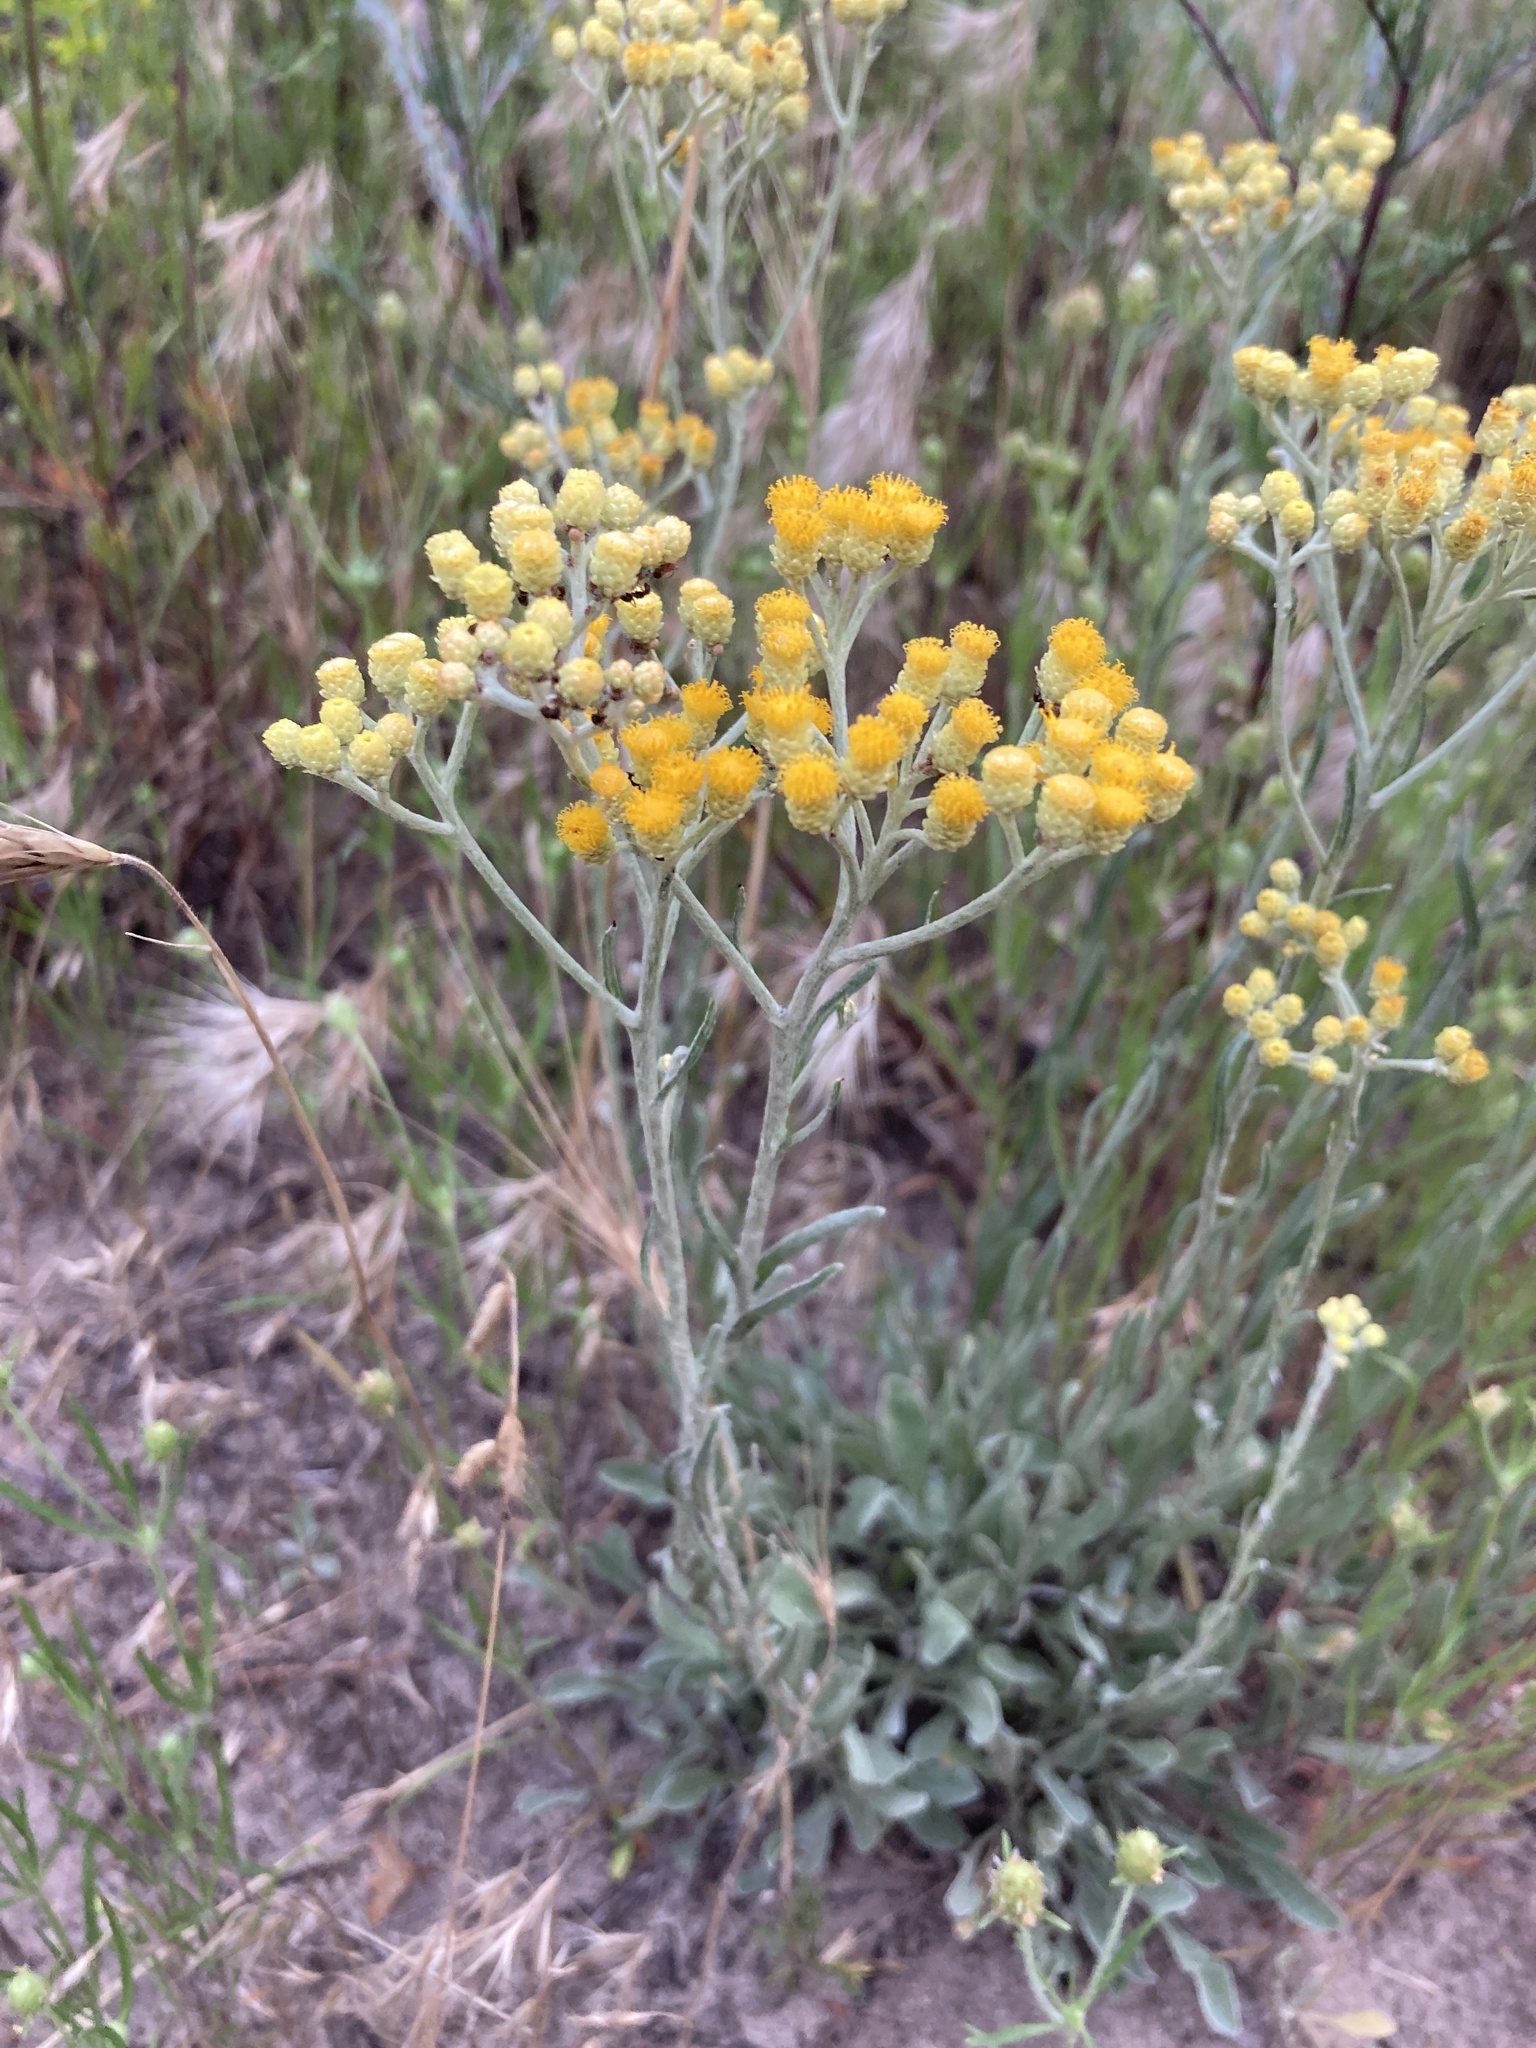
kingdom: Plantae
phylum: Tracheophyta
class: Magnoliopsida
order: Asterales
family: Asteraceae
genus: Helichrysum
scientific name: Helichrysum arenarium
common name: Strawflower
